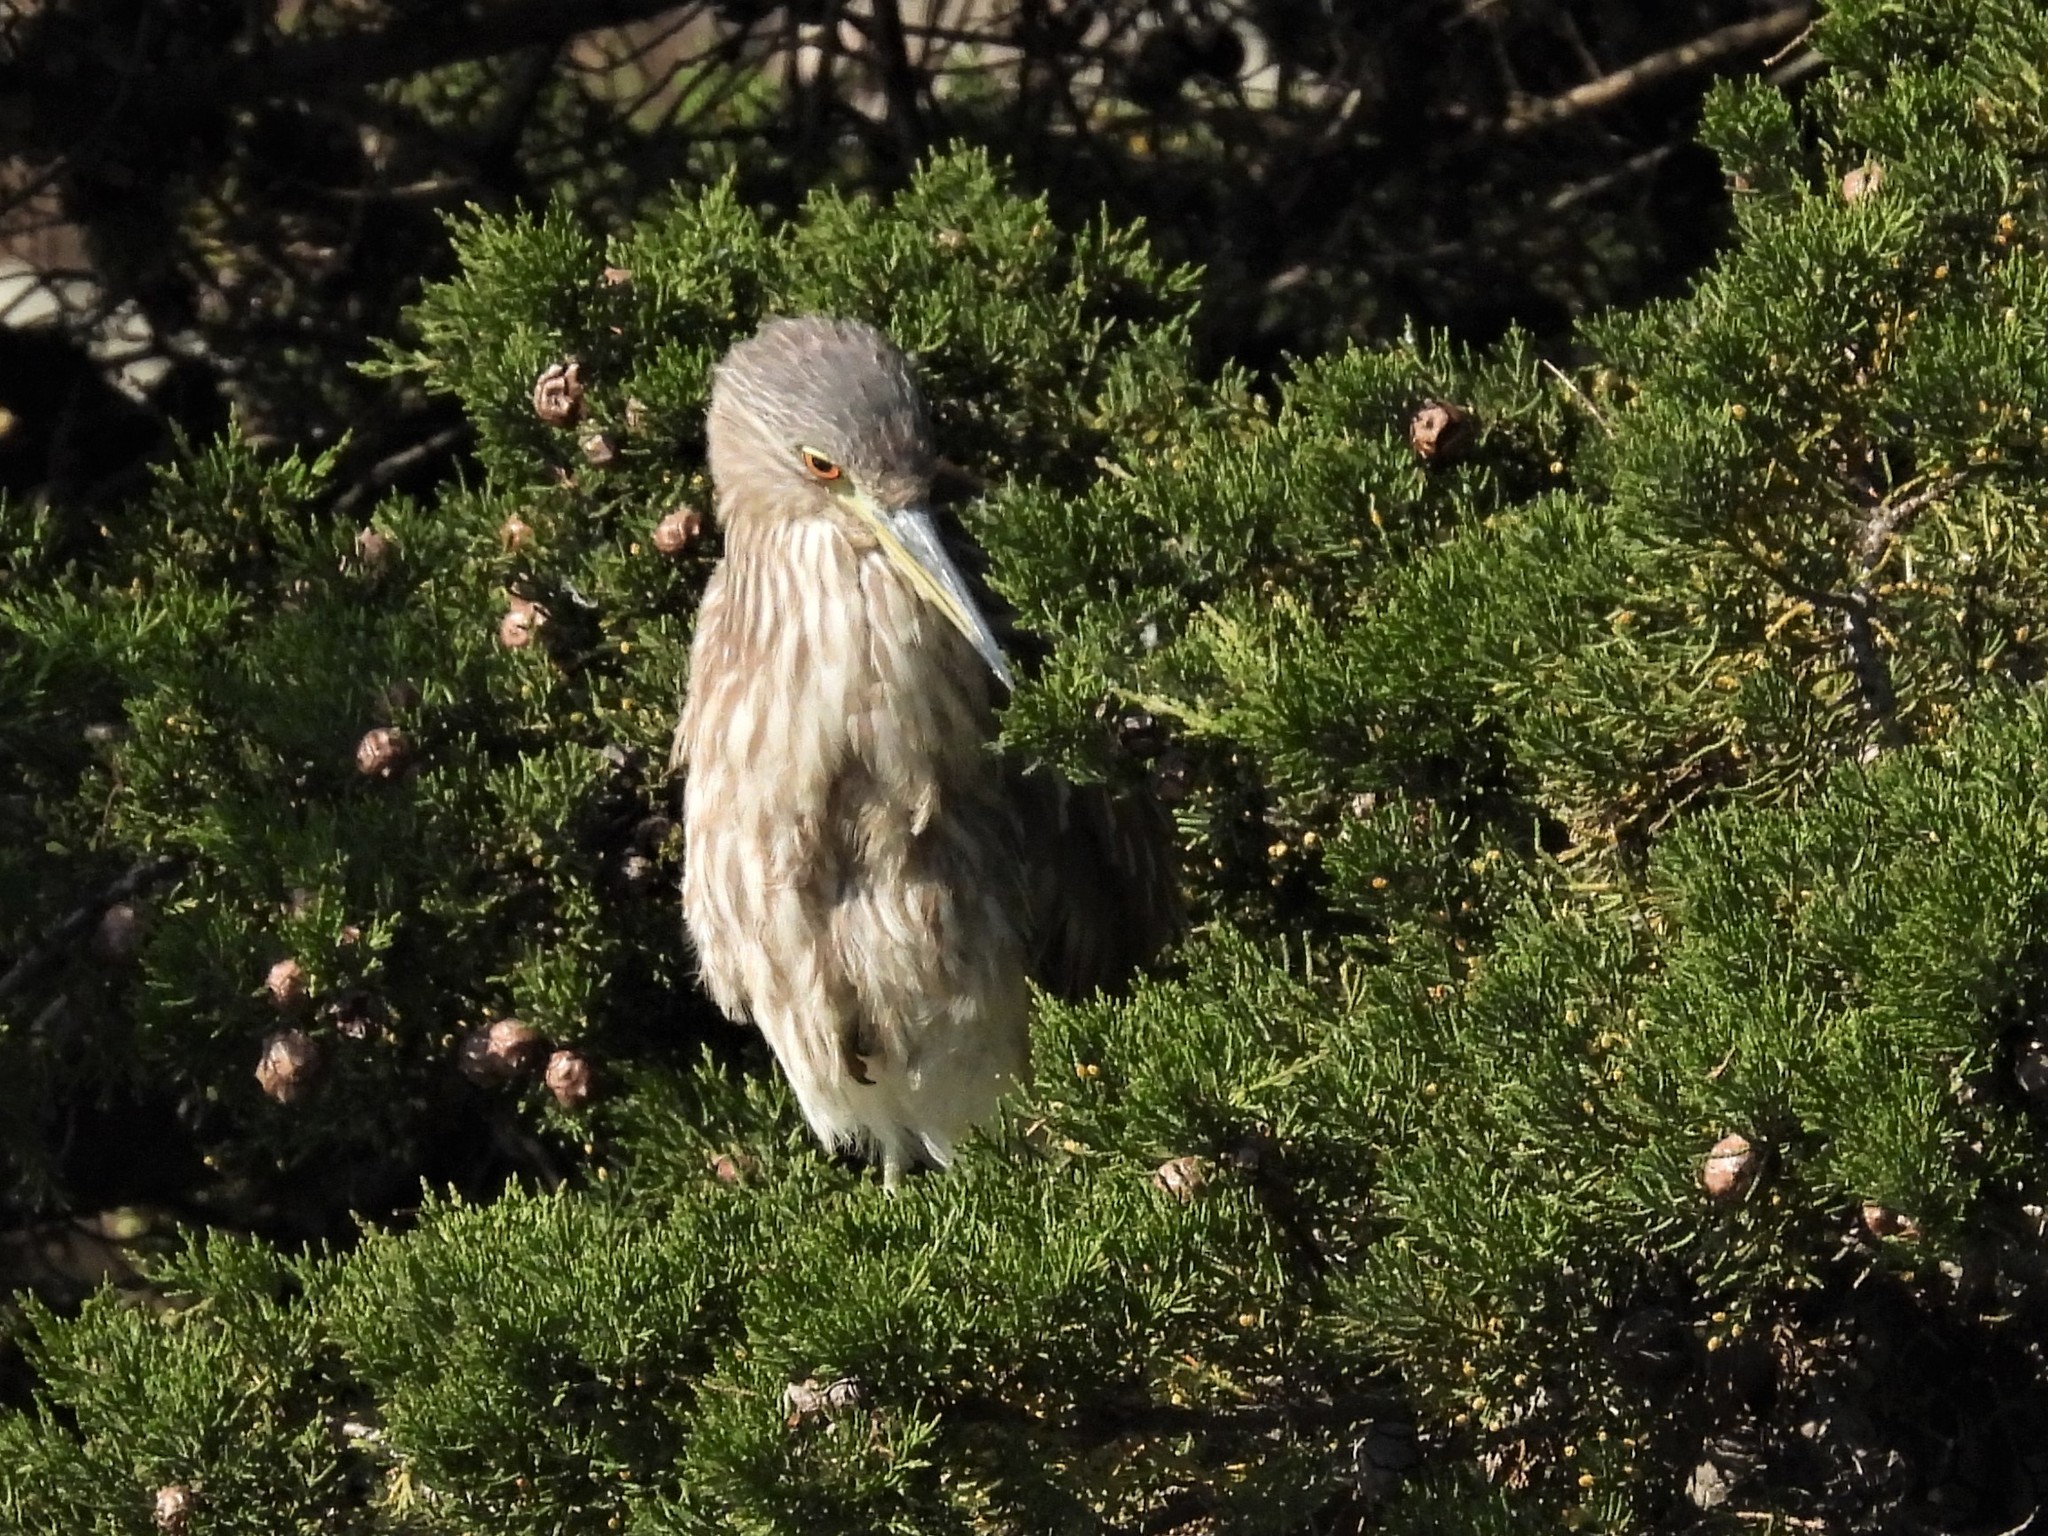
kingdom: Animalia
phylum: Chordata
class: Aves
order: Pelecaniformes
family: Ardeidae
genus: Nycticorax
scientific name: Nycticorax nycticorax
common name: Black-crowned night heron
